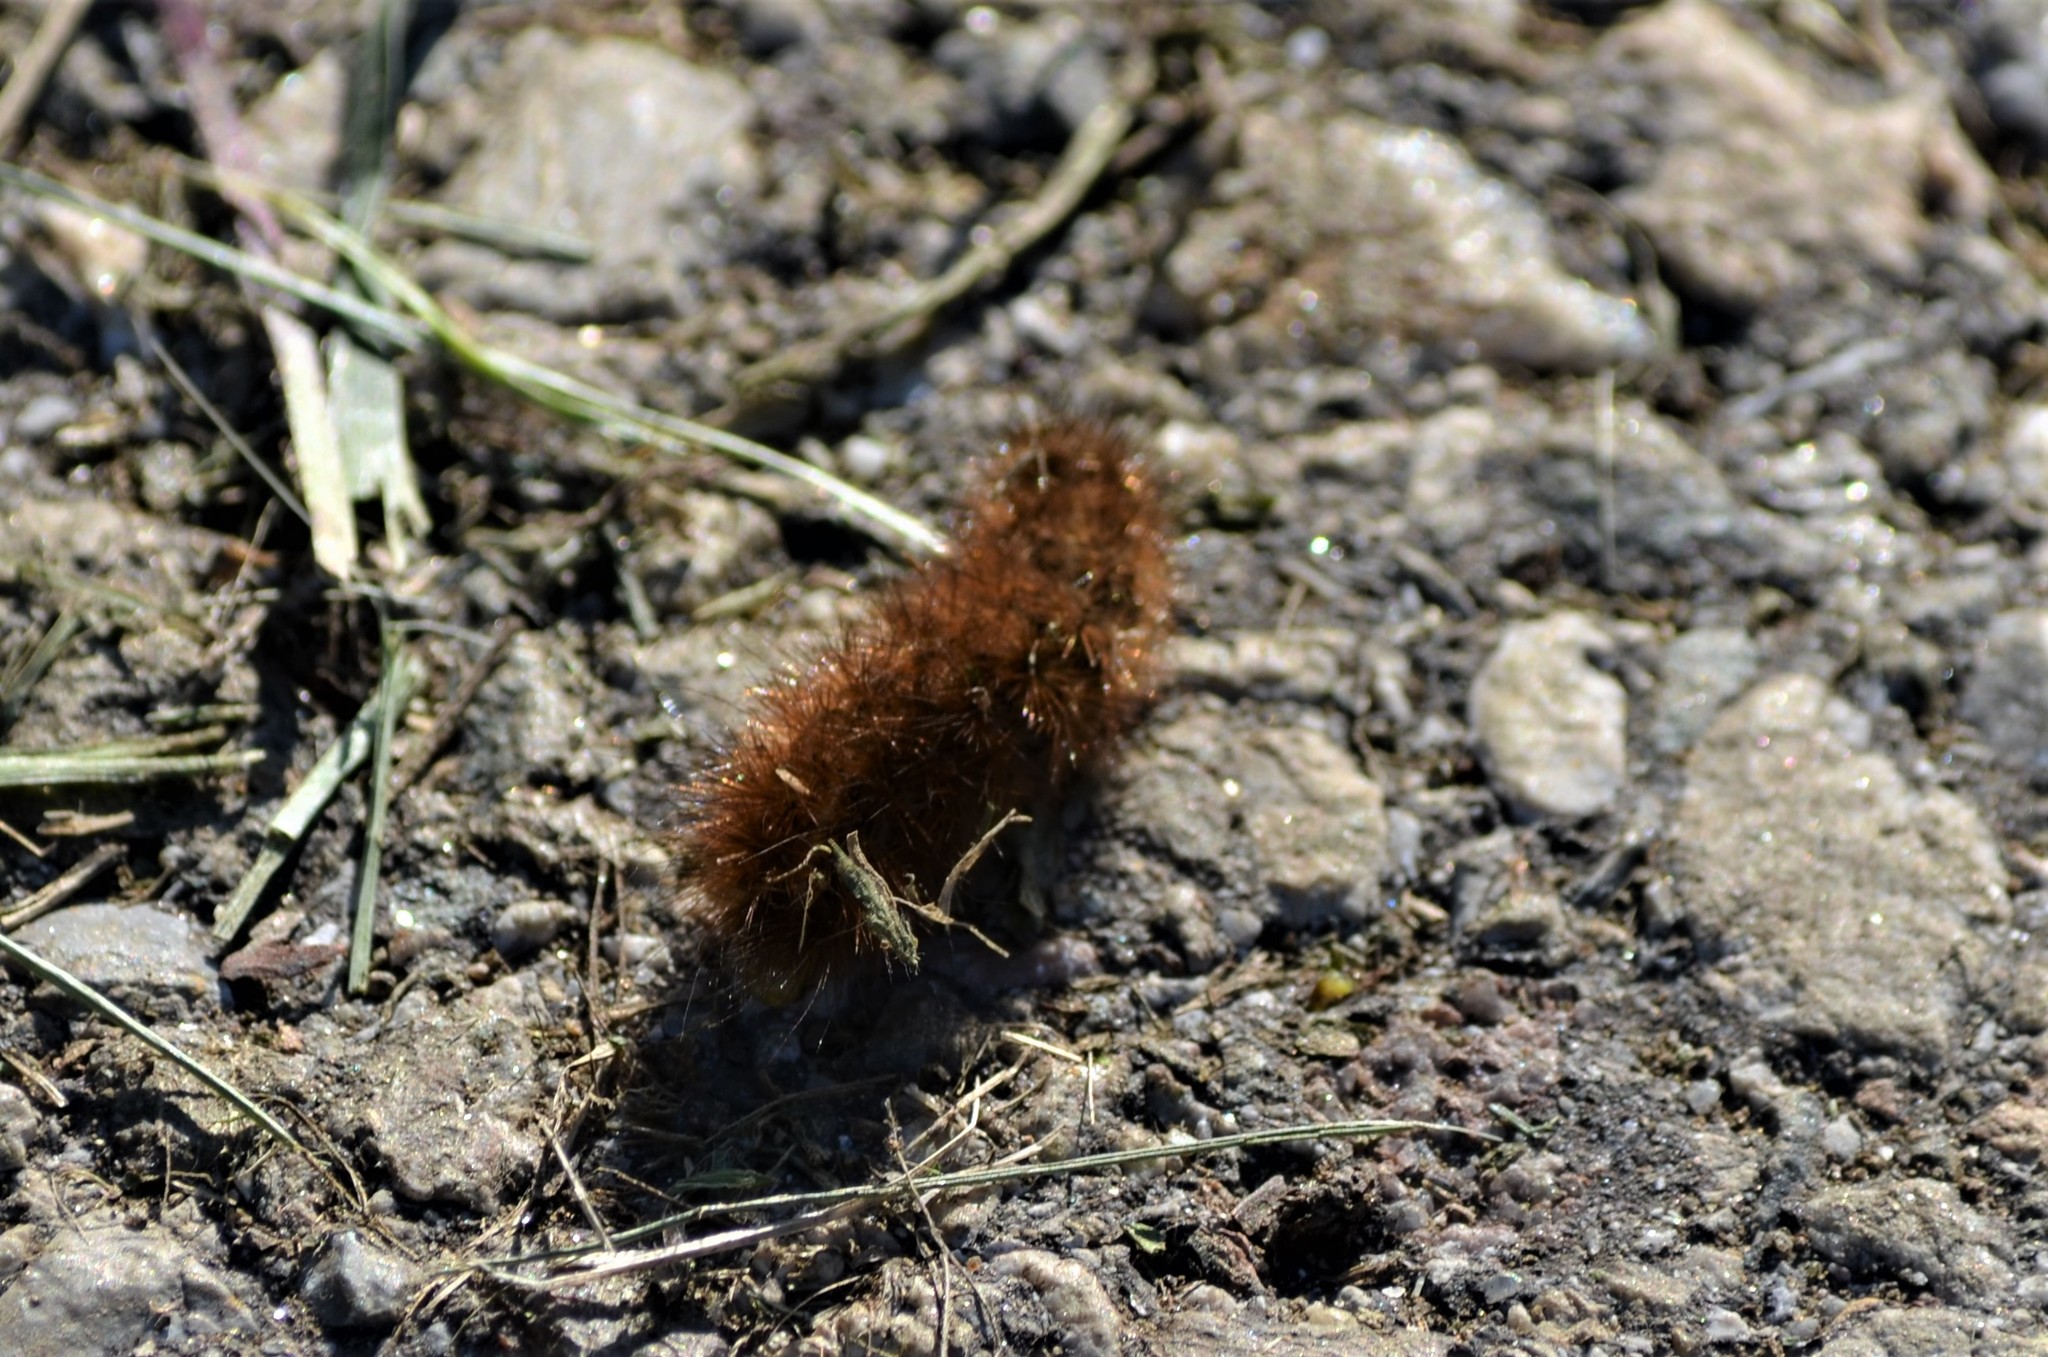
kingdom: Animalia
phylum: Arthropoda
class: Insecta
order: Lepidoptera
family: Erebidae
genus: Phragmatobia
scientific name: Phragmatobia fuliginosa
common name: Ruby tiger
